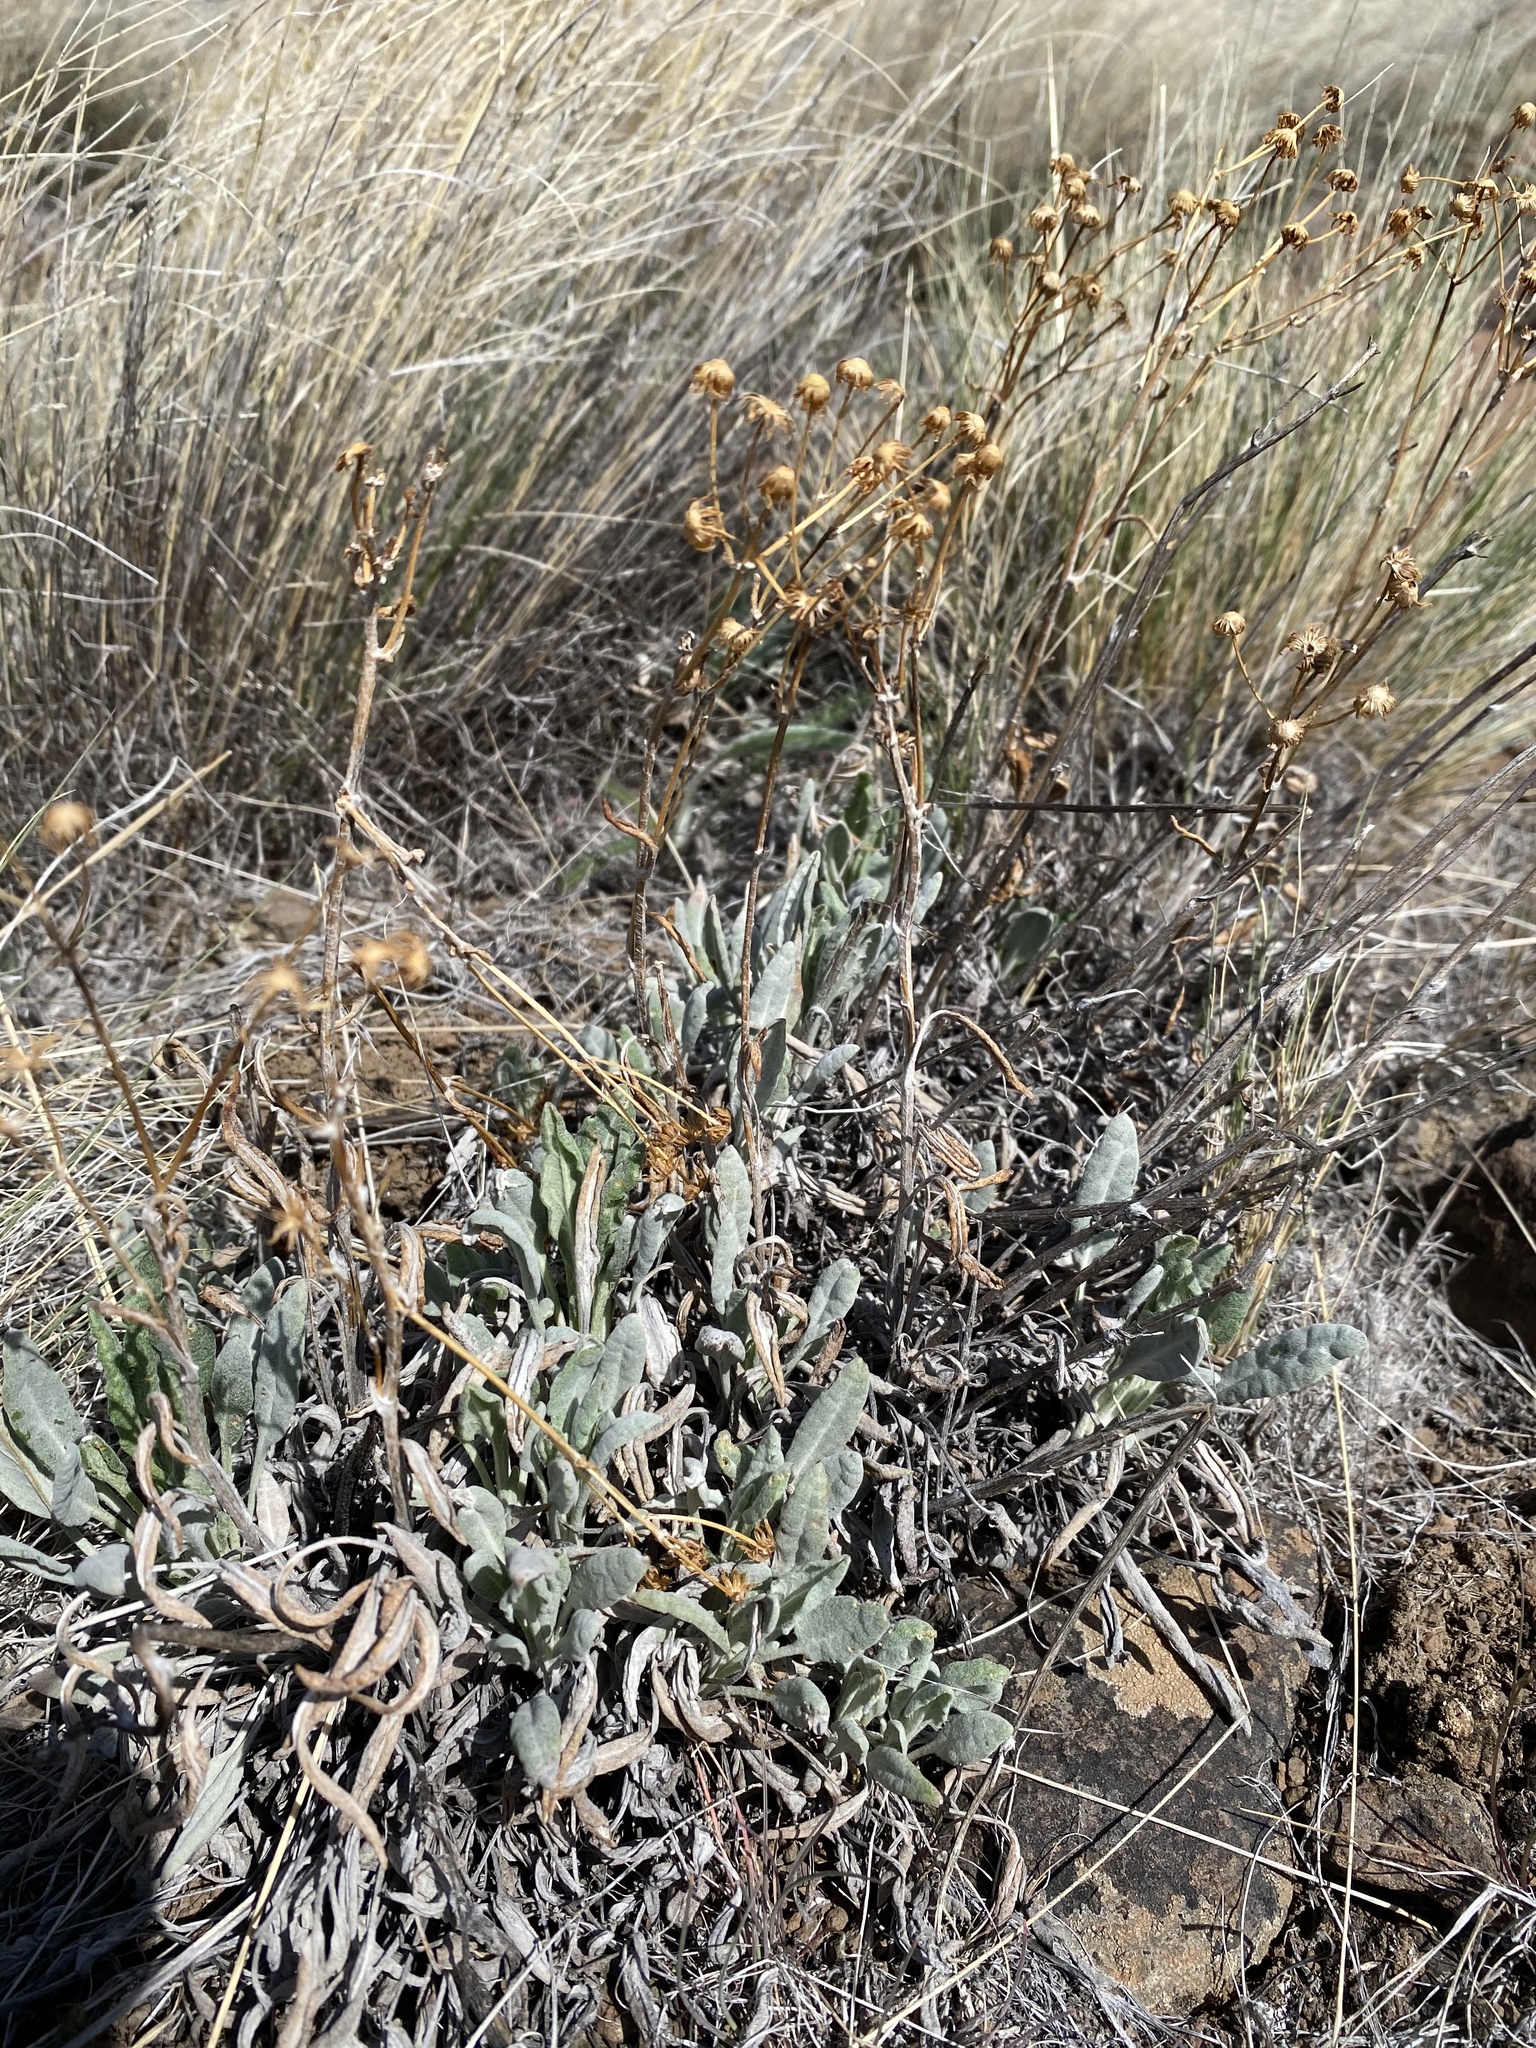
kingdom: Plantae
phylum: Tracheophyta
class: Magnoliopsida
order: Asterales
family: Asteraceae
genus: Packera
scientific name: Packera cana
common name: Woolly groundsel
